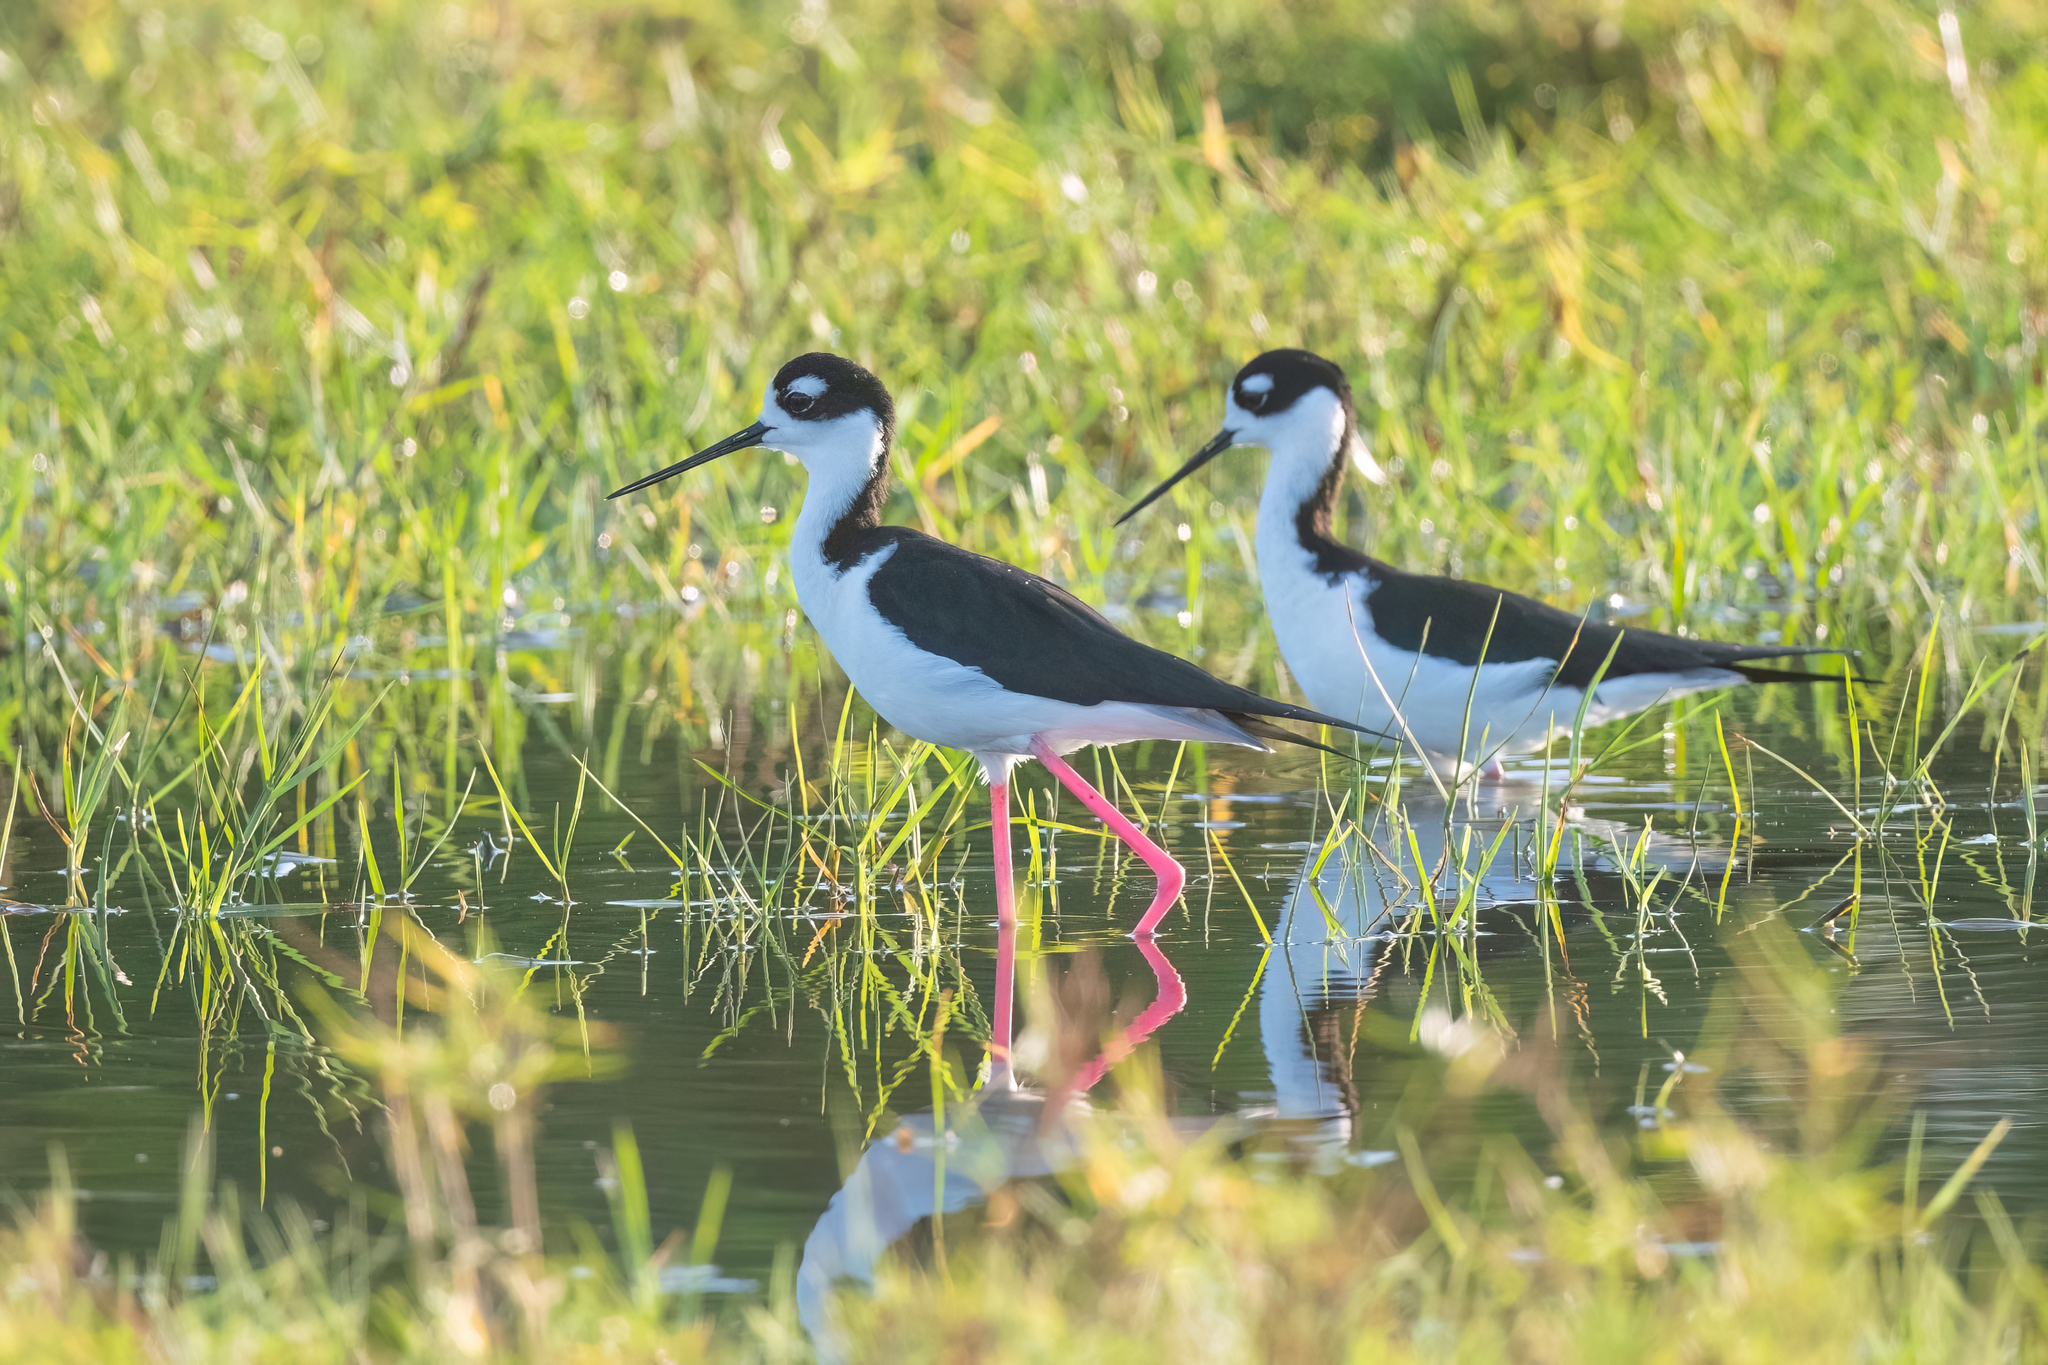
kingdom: Animalia
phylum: Chordata
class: Aves
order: Charadriiformes
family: Recurvirostridae
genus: Himantopus
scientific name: Himantopus mexicanus
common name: Black-necked stilt
